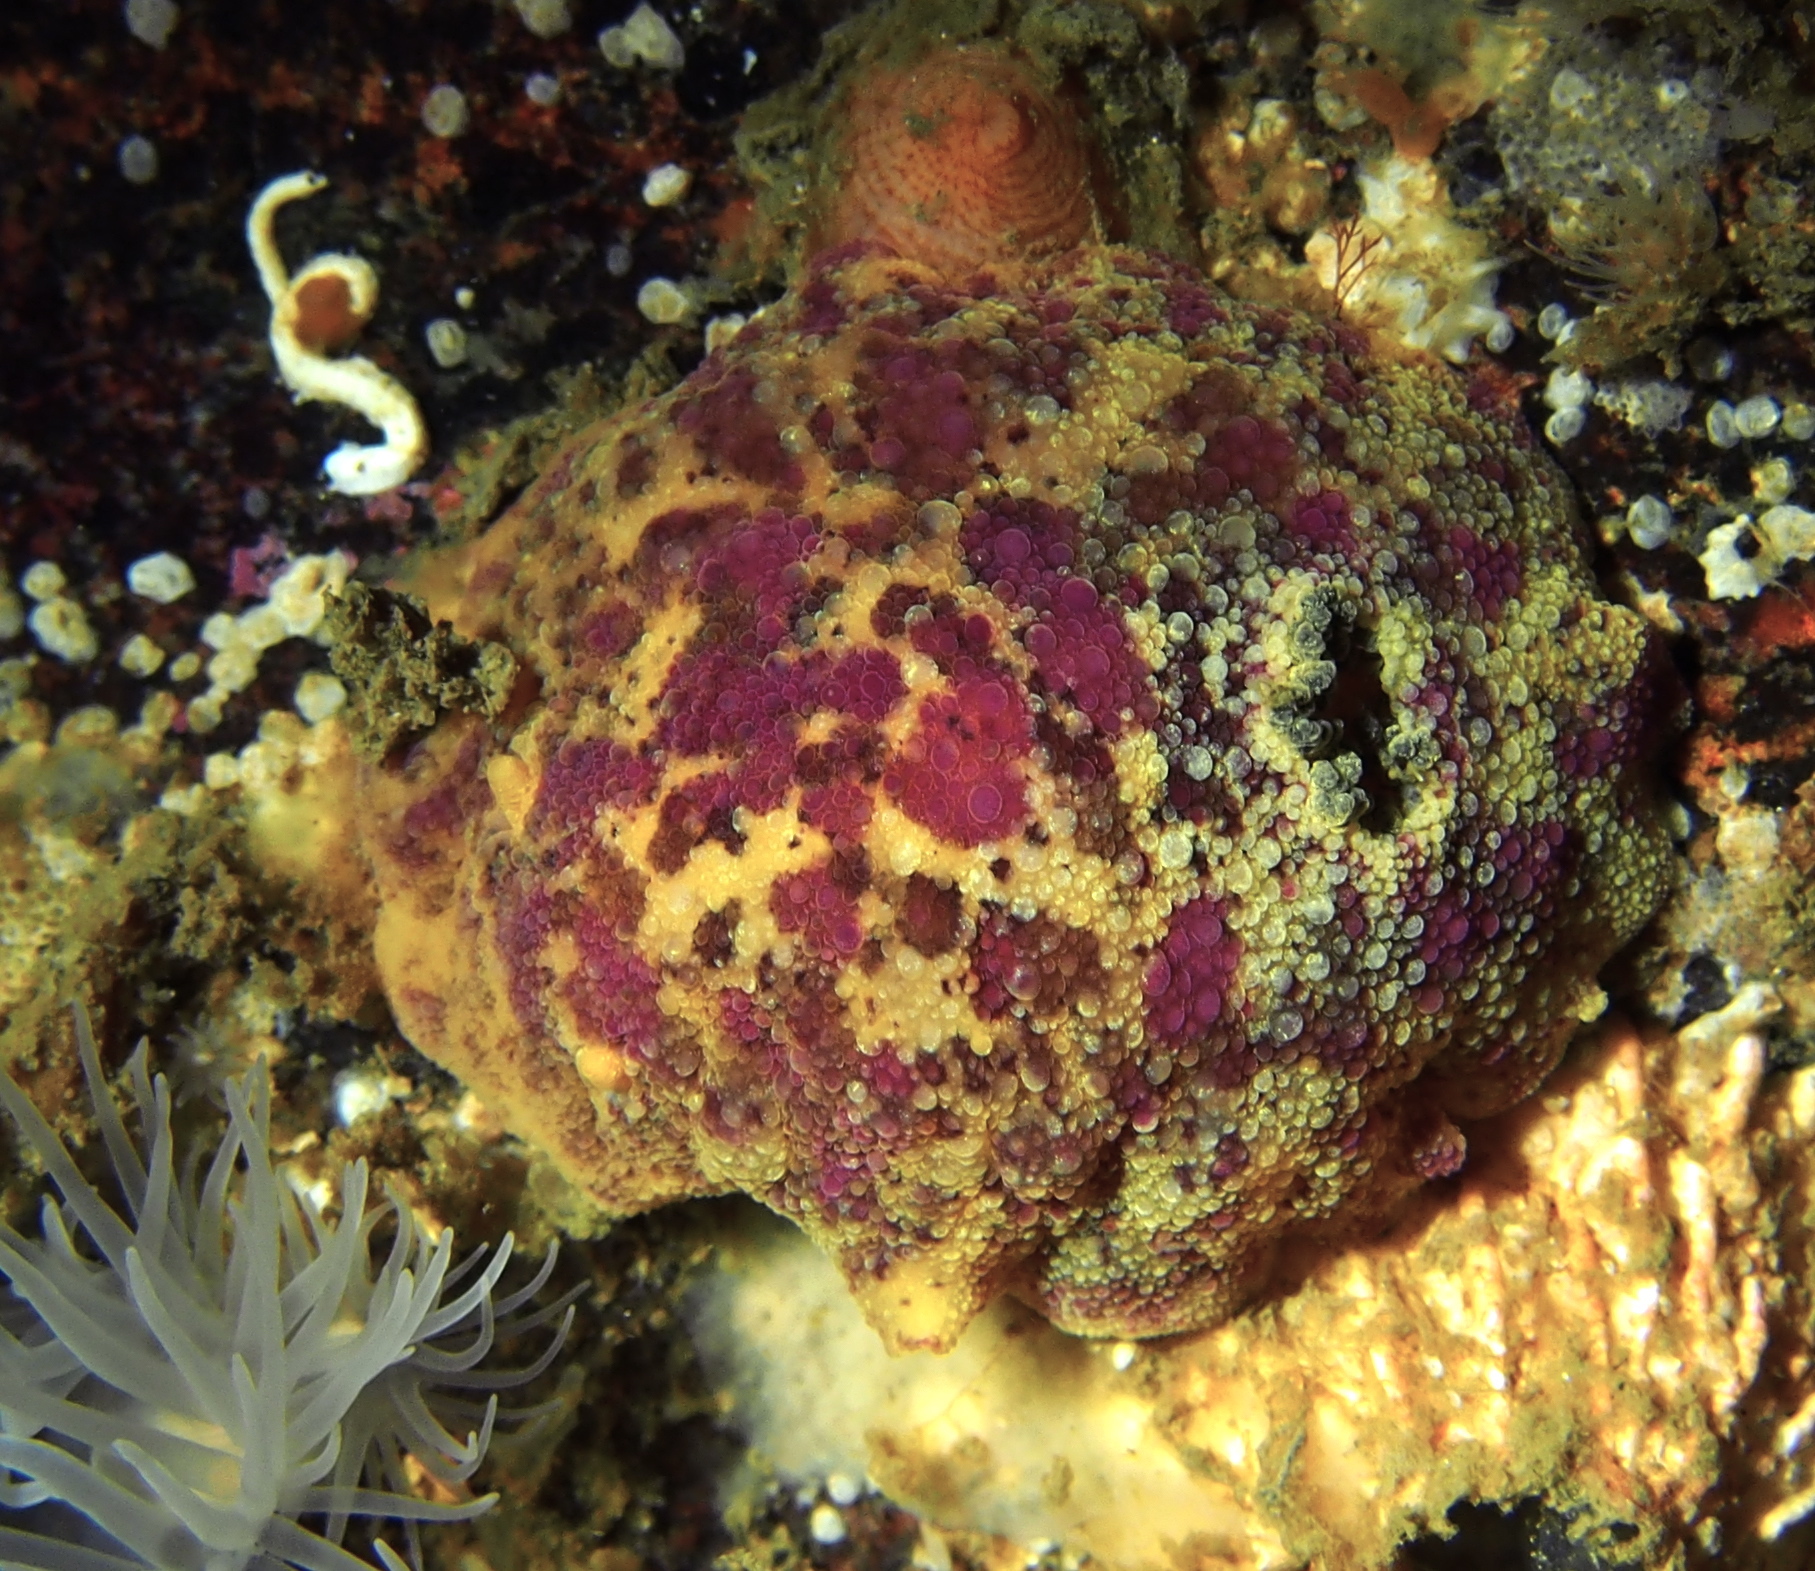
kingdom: Animalia
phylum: Mollusca
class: Gastropoda
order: Nudibranchia
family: Dorididae
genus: Doris
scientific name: Doris pseudoargus
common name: Sea lemon
